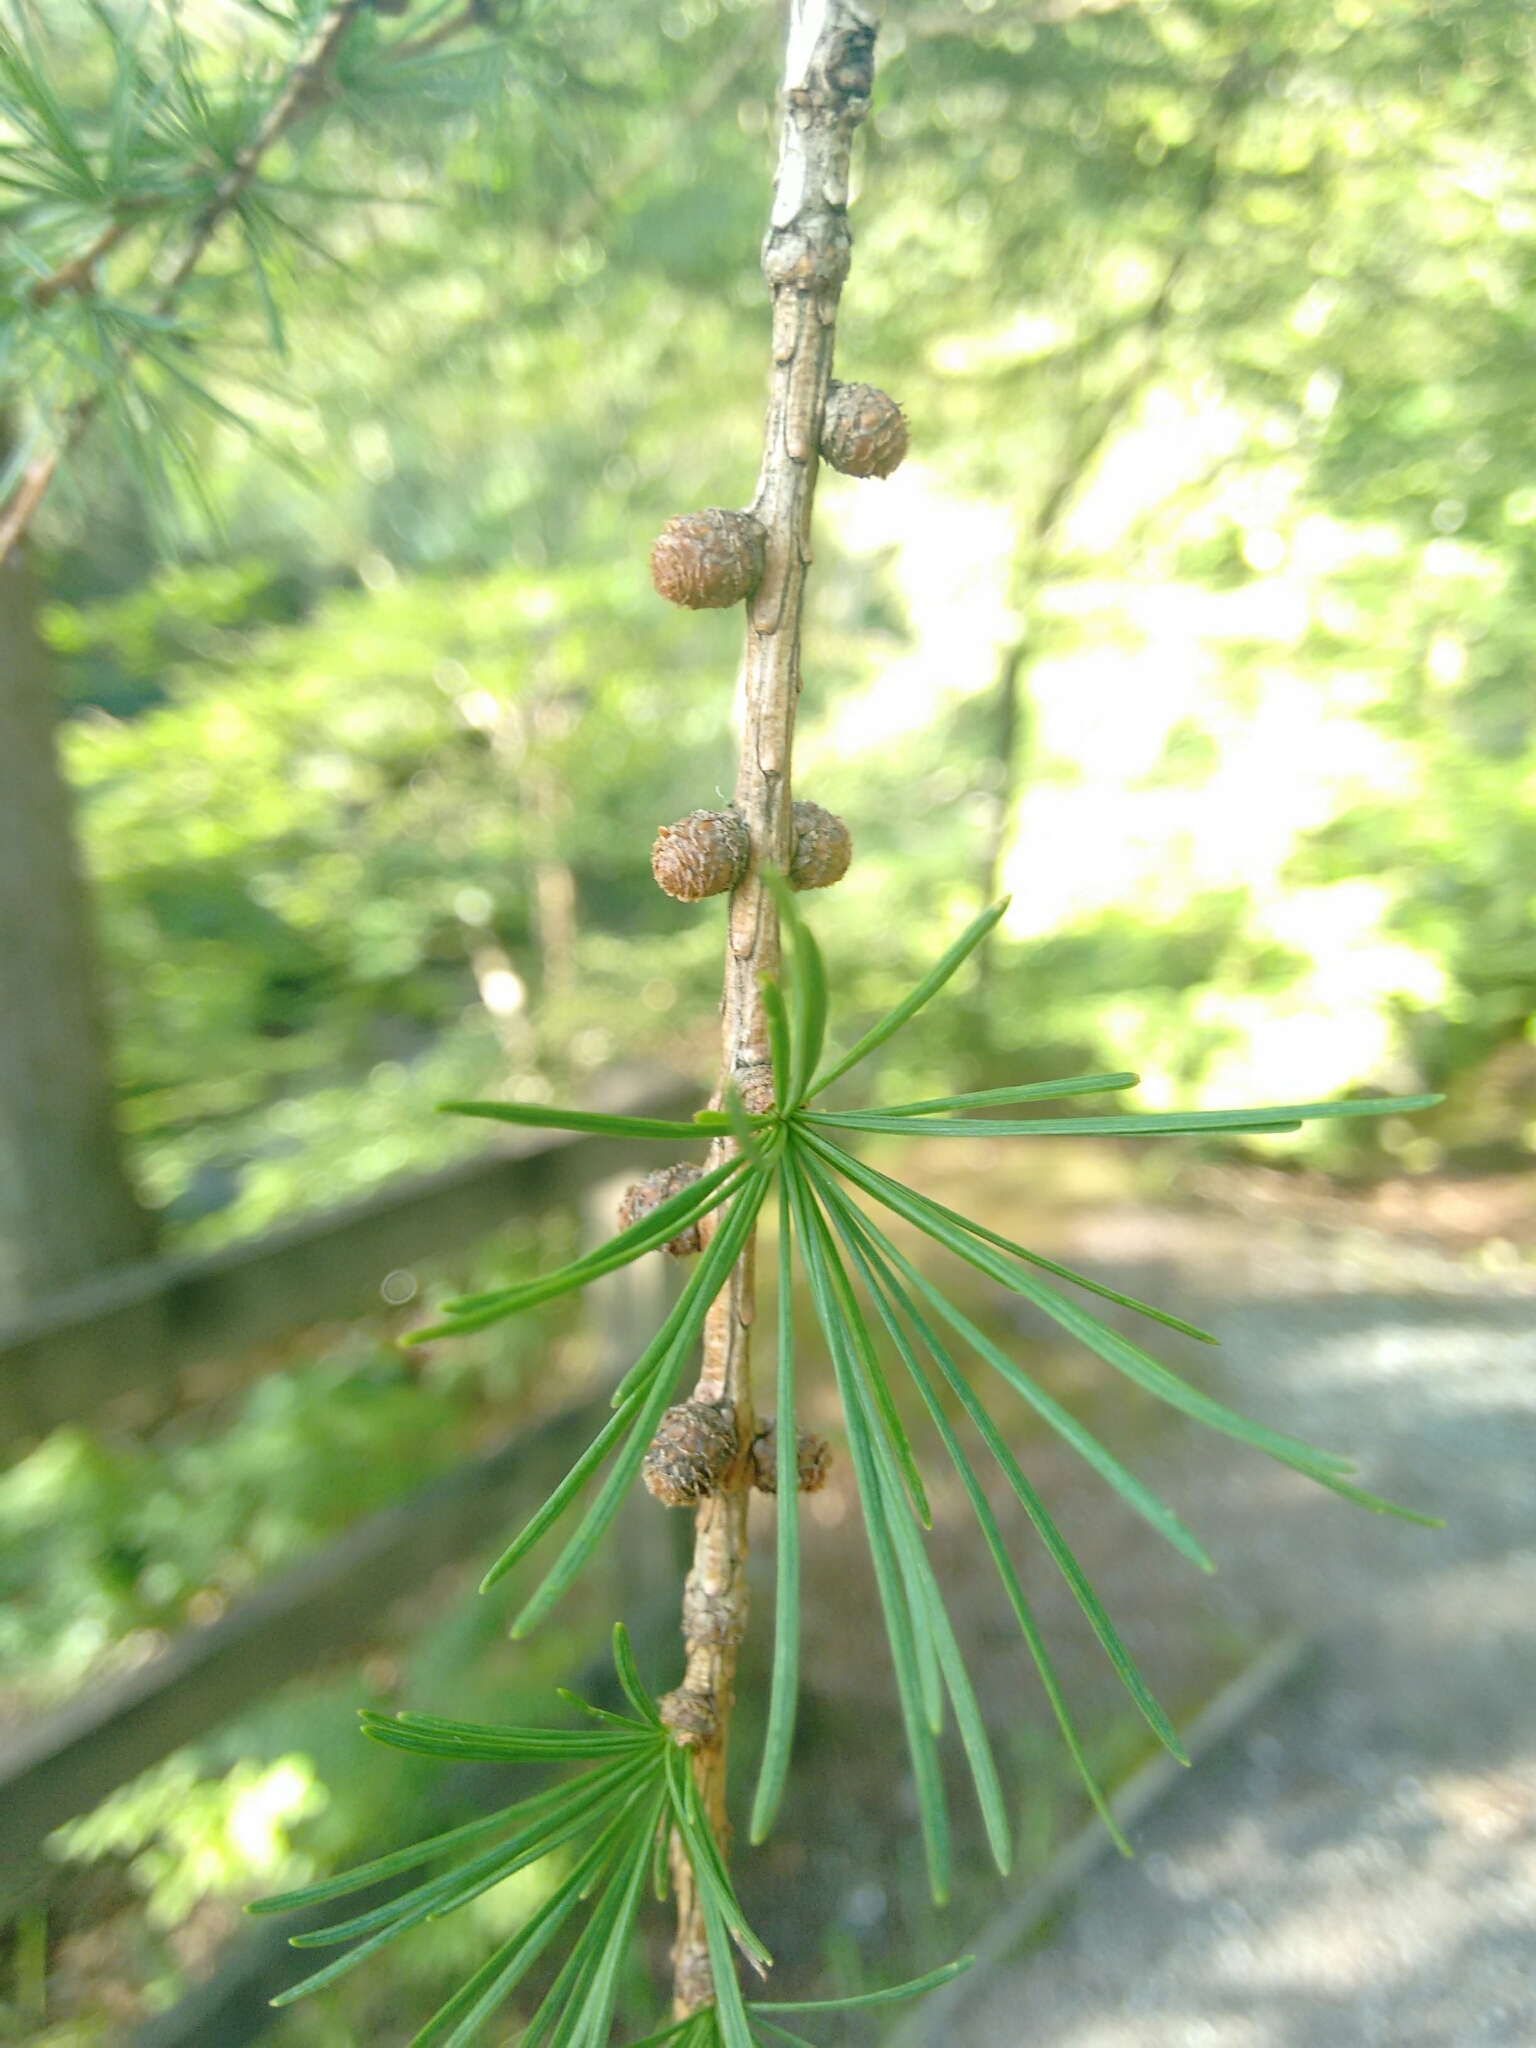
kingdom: Plantae
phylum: Tracheophyta
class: Pinopsida
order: Pinales
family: Pinaceae
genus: Larix
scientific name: Larix decidua
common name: European larch
